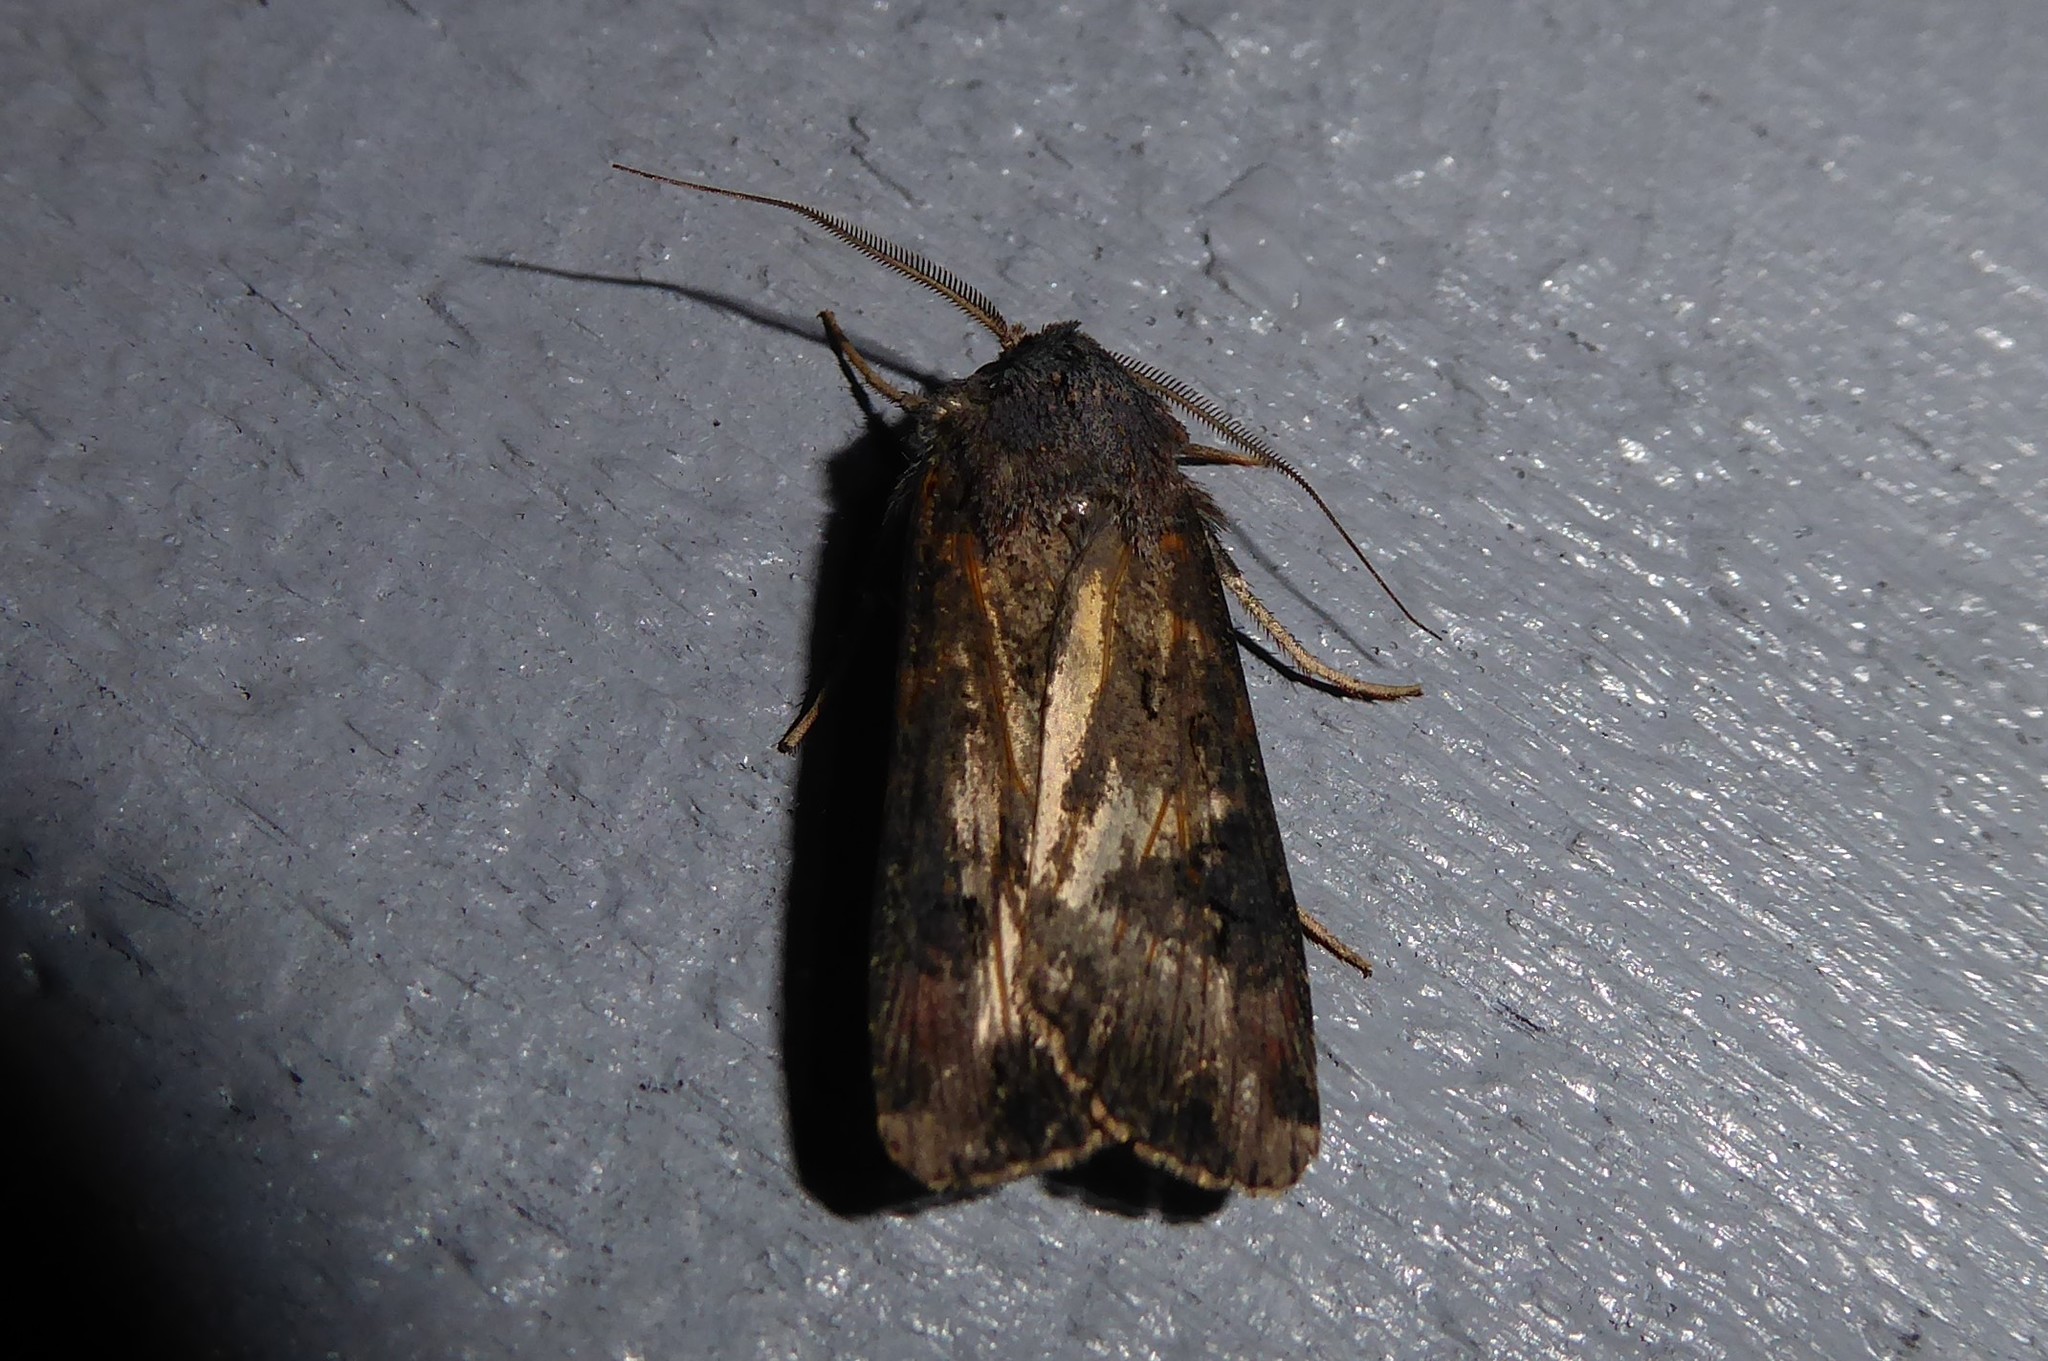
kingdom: Animalia
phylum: Arthropoda
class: Insecta
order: Lepidoptera
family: Noctuidae
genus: Agrotis
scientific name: Agrotis ipsilon
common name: Dark sword-grass
